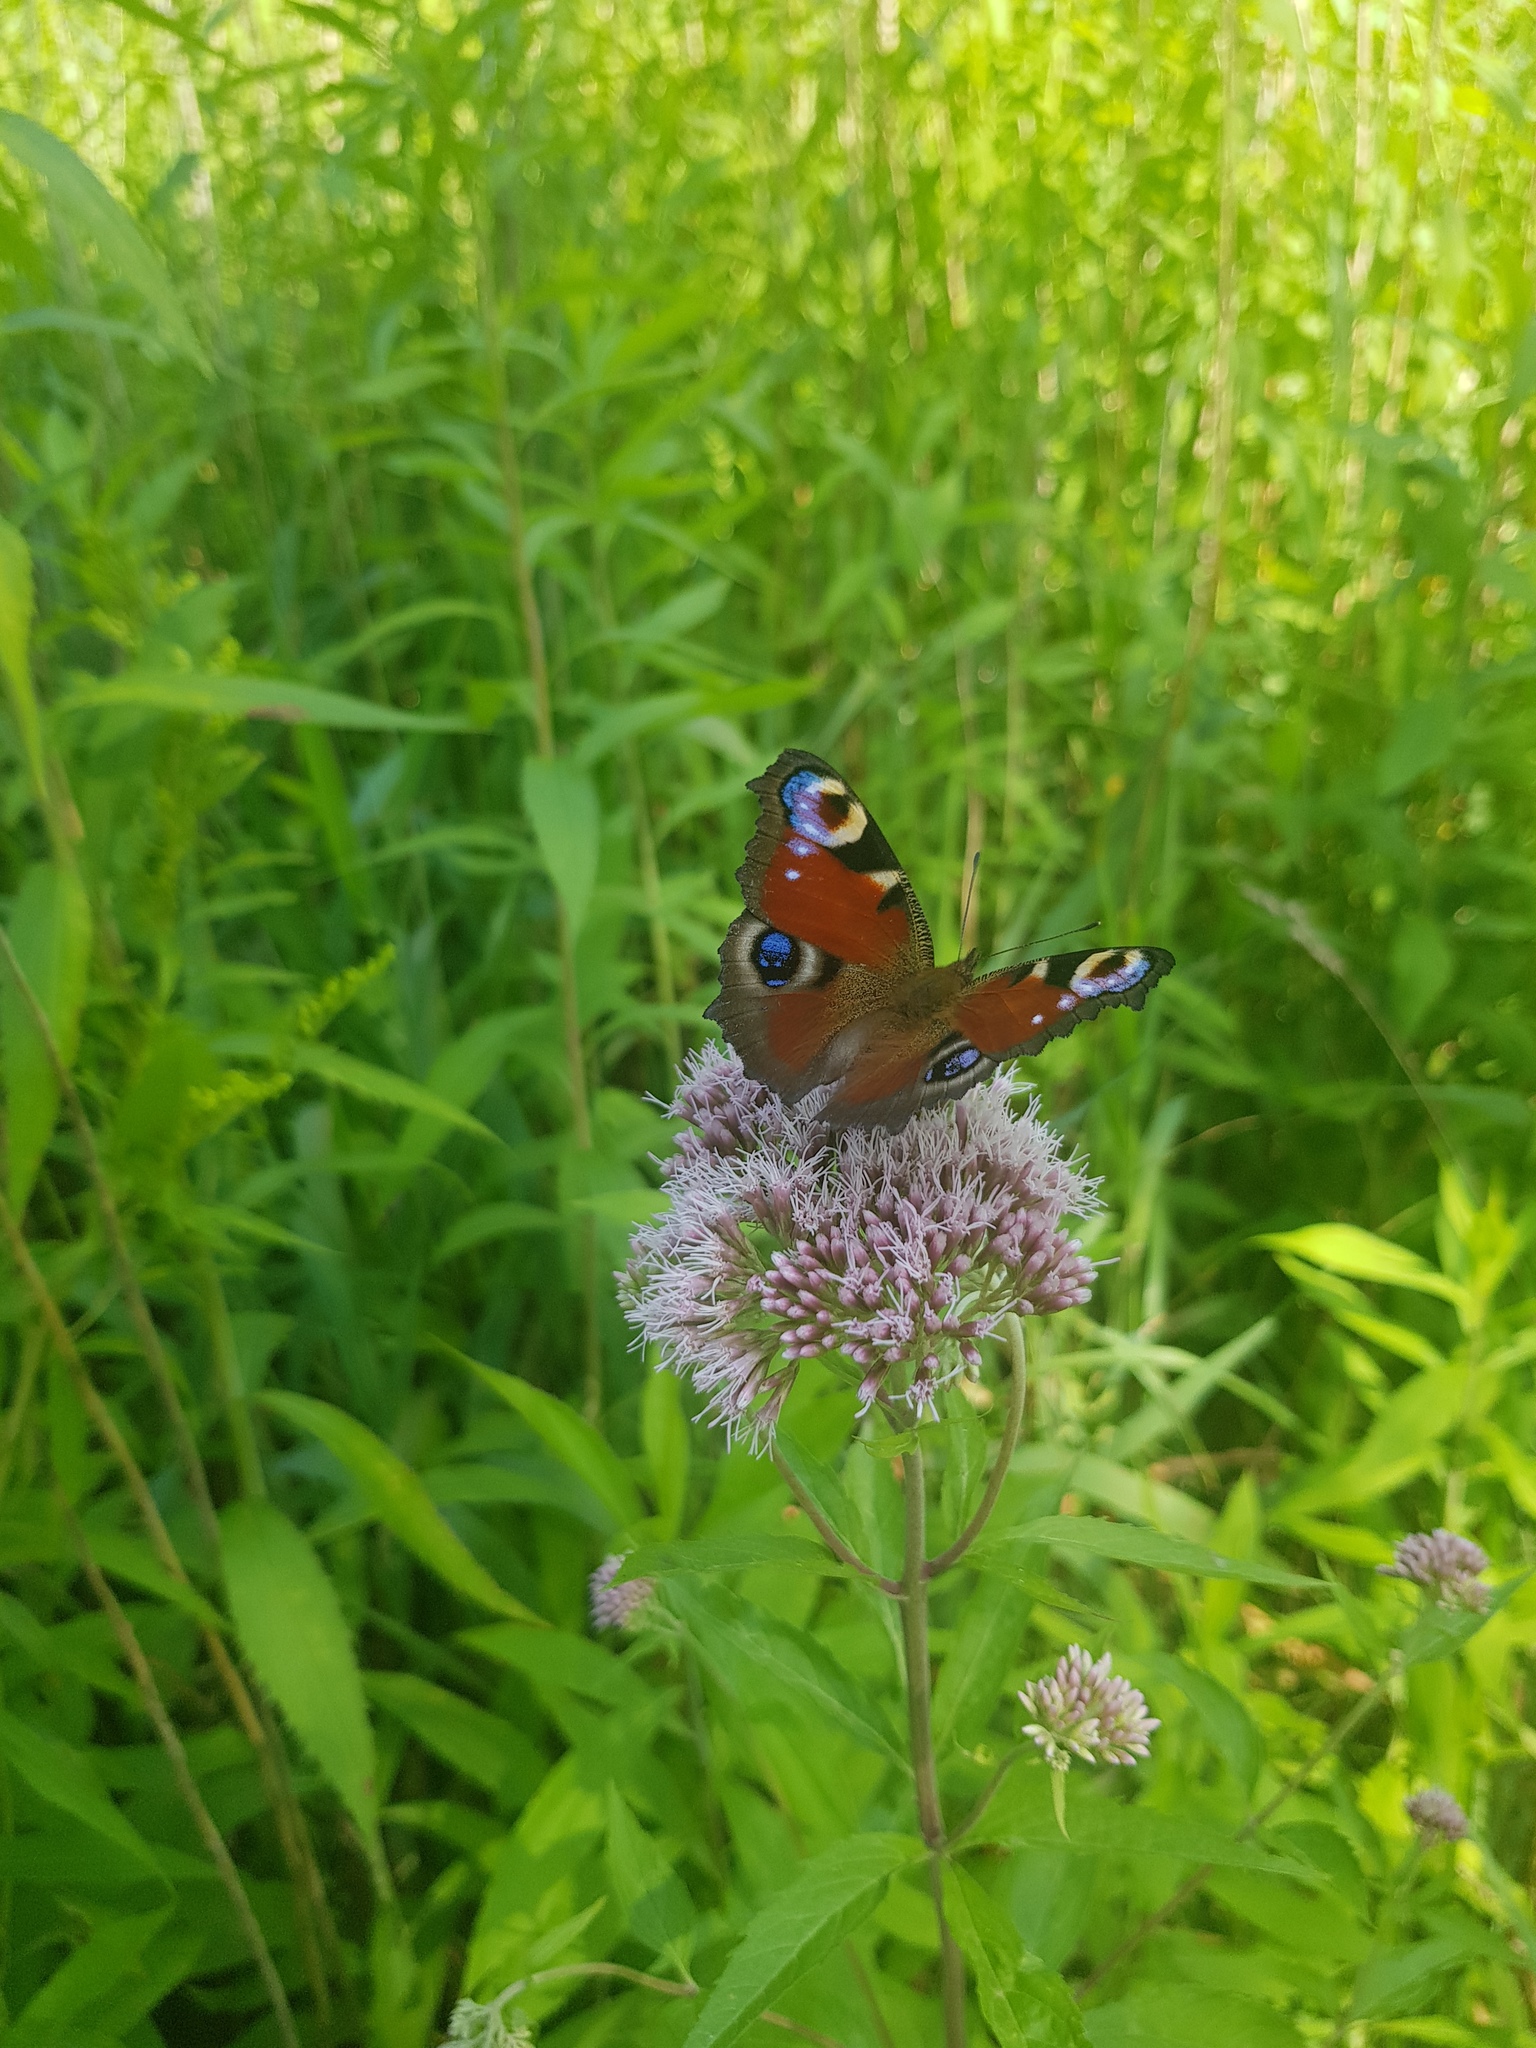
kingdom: Animalia
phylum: Arthropoda
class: Insecta
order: Lepidoptera
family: Nymphalidae
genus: Aglais
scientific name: Aglais io
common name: Peacock
